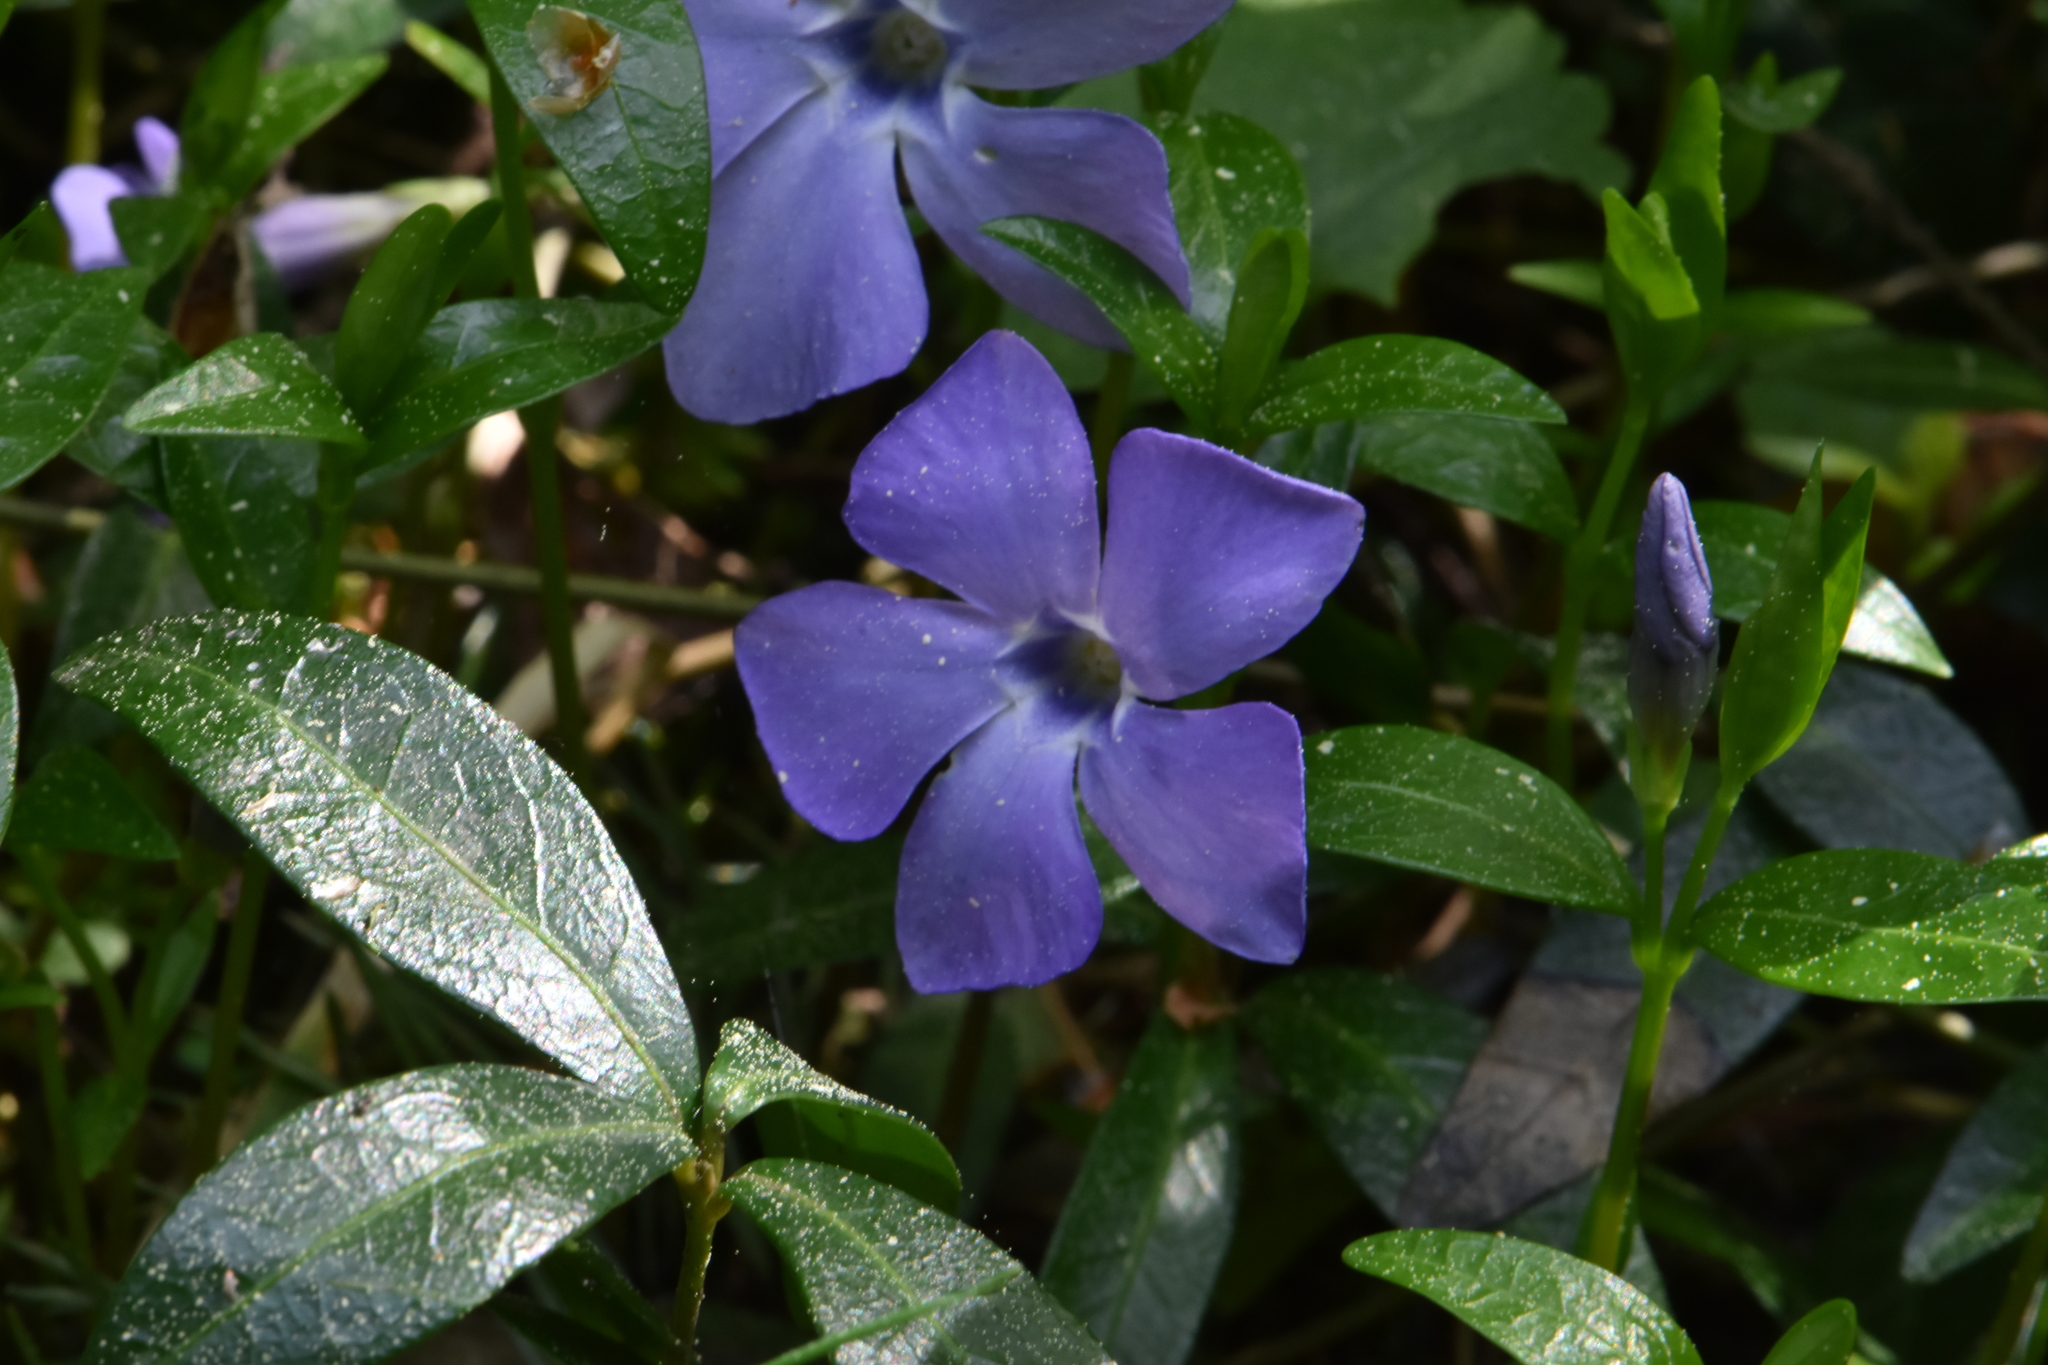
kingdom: Plantae
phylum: Tracheophyta
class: Magnoliopsida
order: Gentianales
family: Apocynaceae
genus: Vinca
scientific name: Vinca minor
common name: Lesser periwinkle
